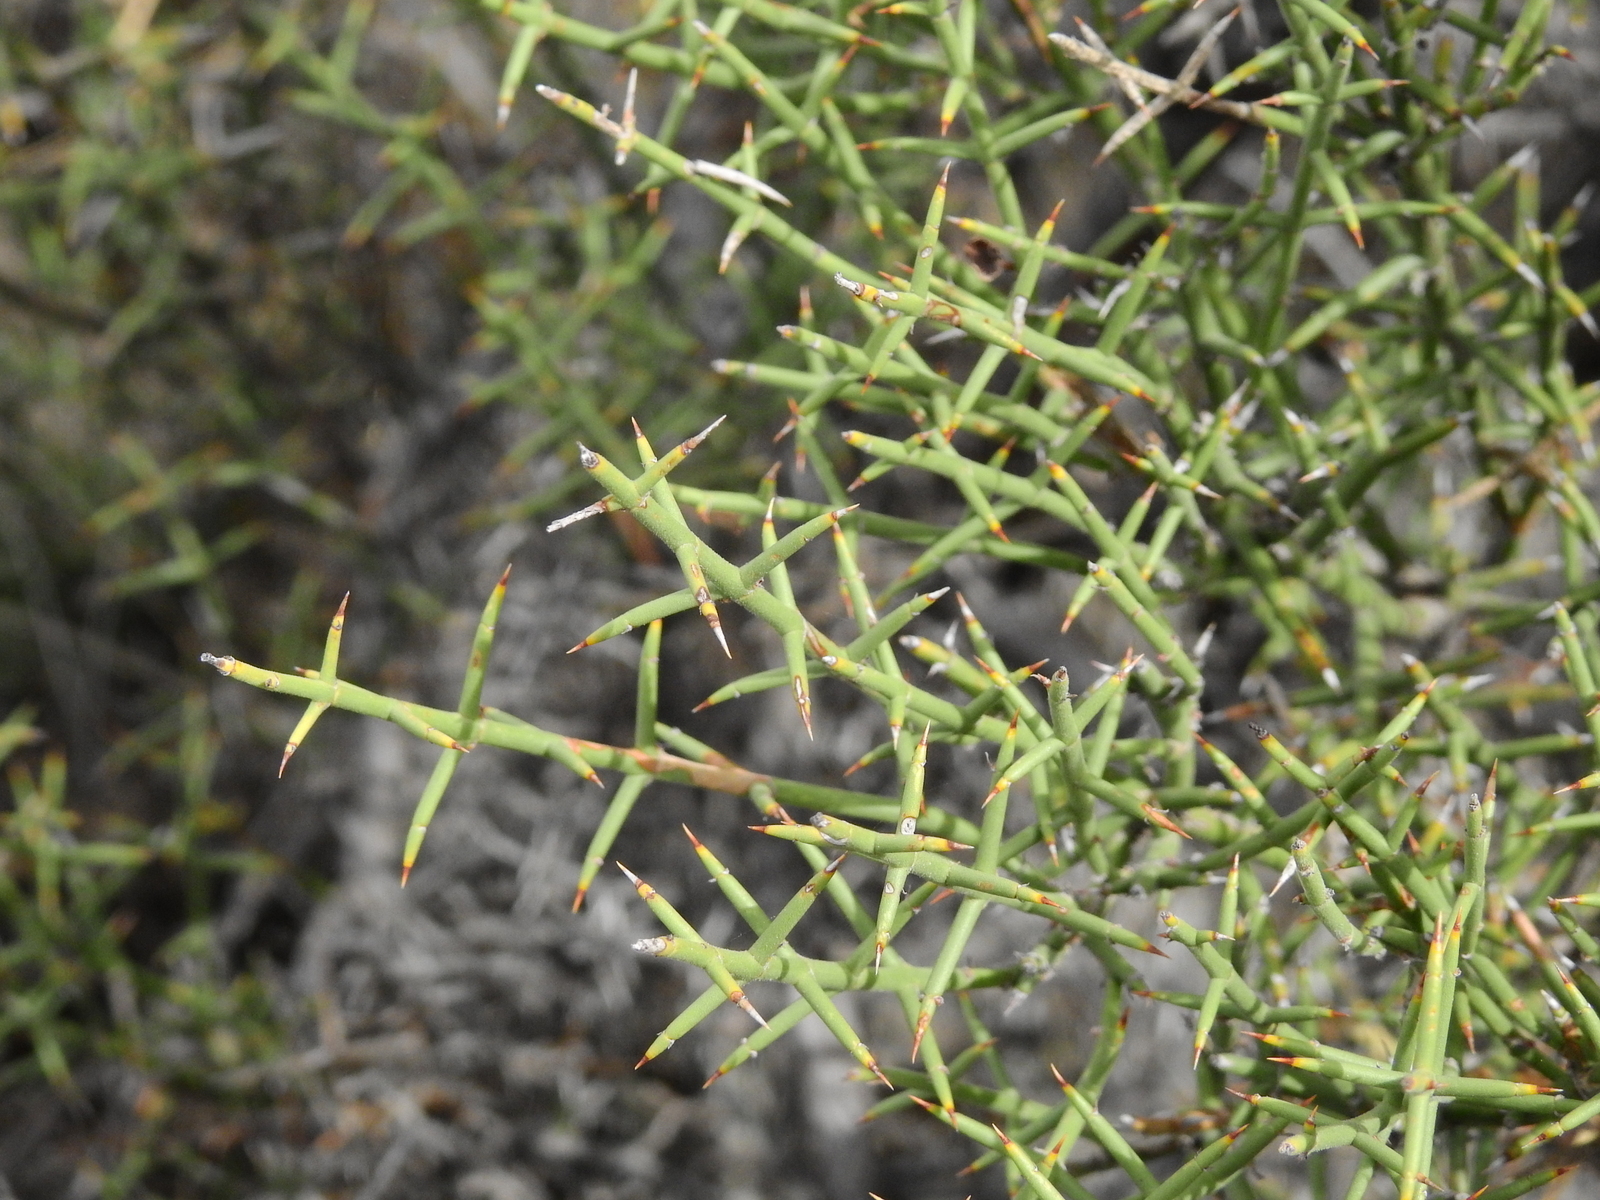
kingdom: Plantae
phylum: Tracheophyta
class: Magnoliopsida
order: Rosales
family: Rhamnaceae
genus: Discaria
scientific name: Discaria americana
